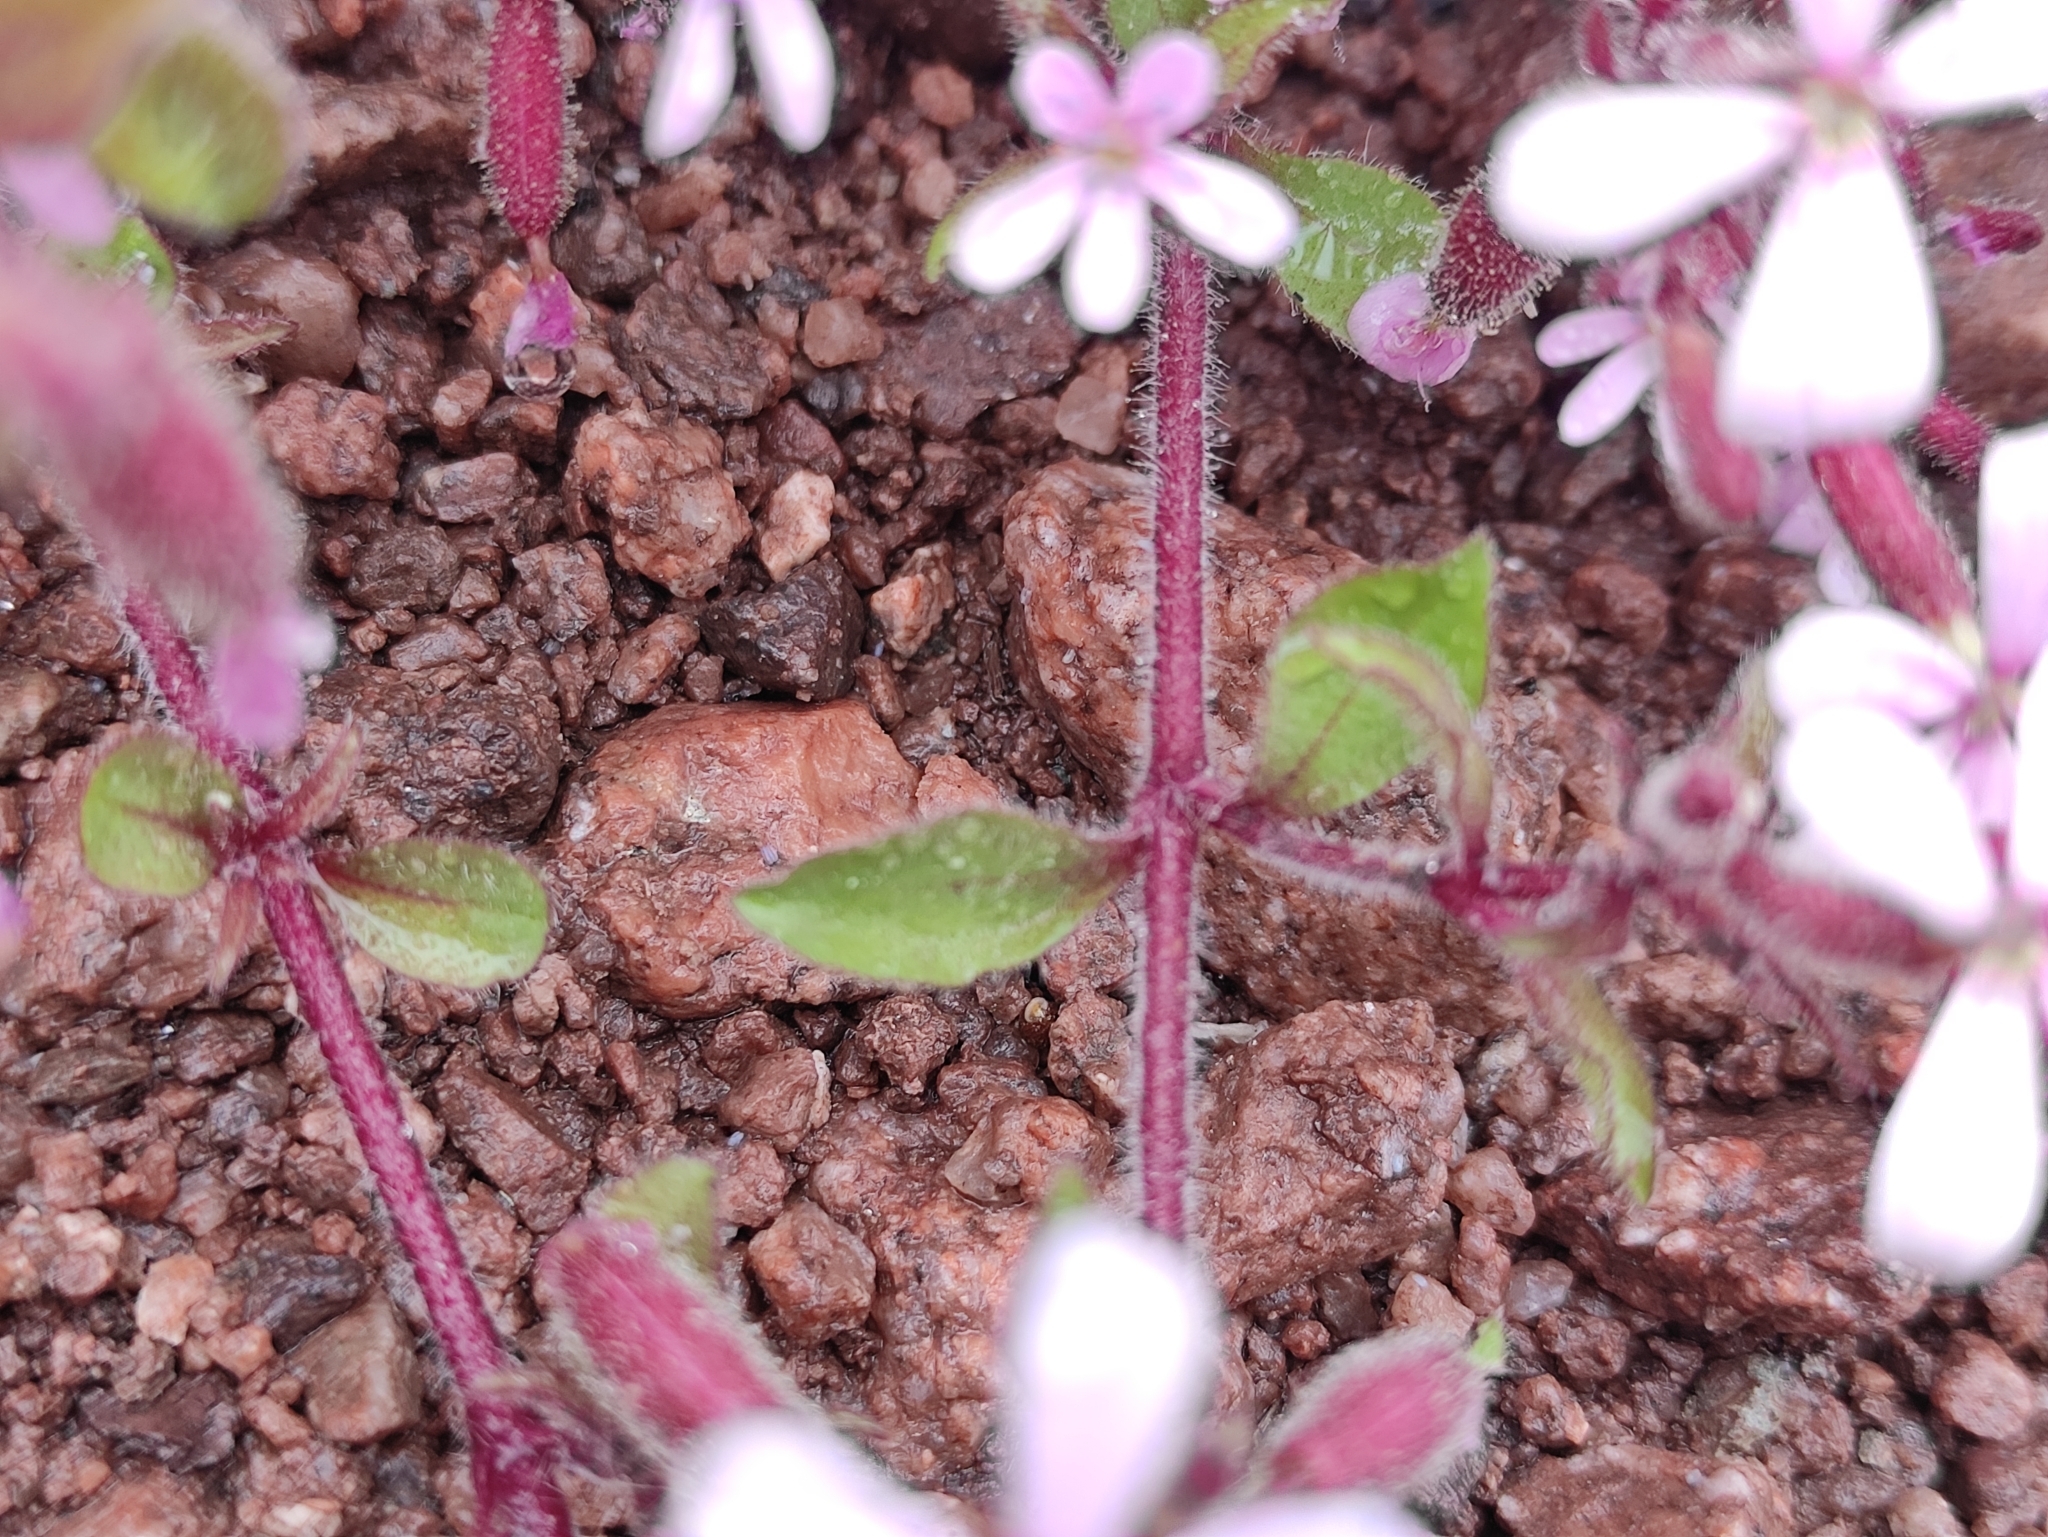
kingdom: Plantae
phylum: Tracheophyta
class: Magnoliopsida
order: Caryophyllales
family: Caryophyllaceae
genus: Saponaria
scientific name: Saponaria ocymoides
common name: Rock soapwort
